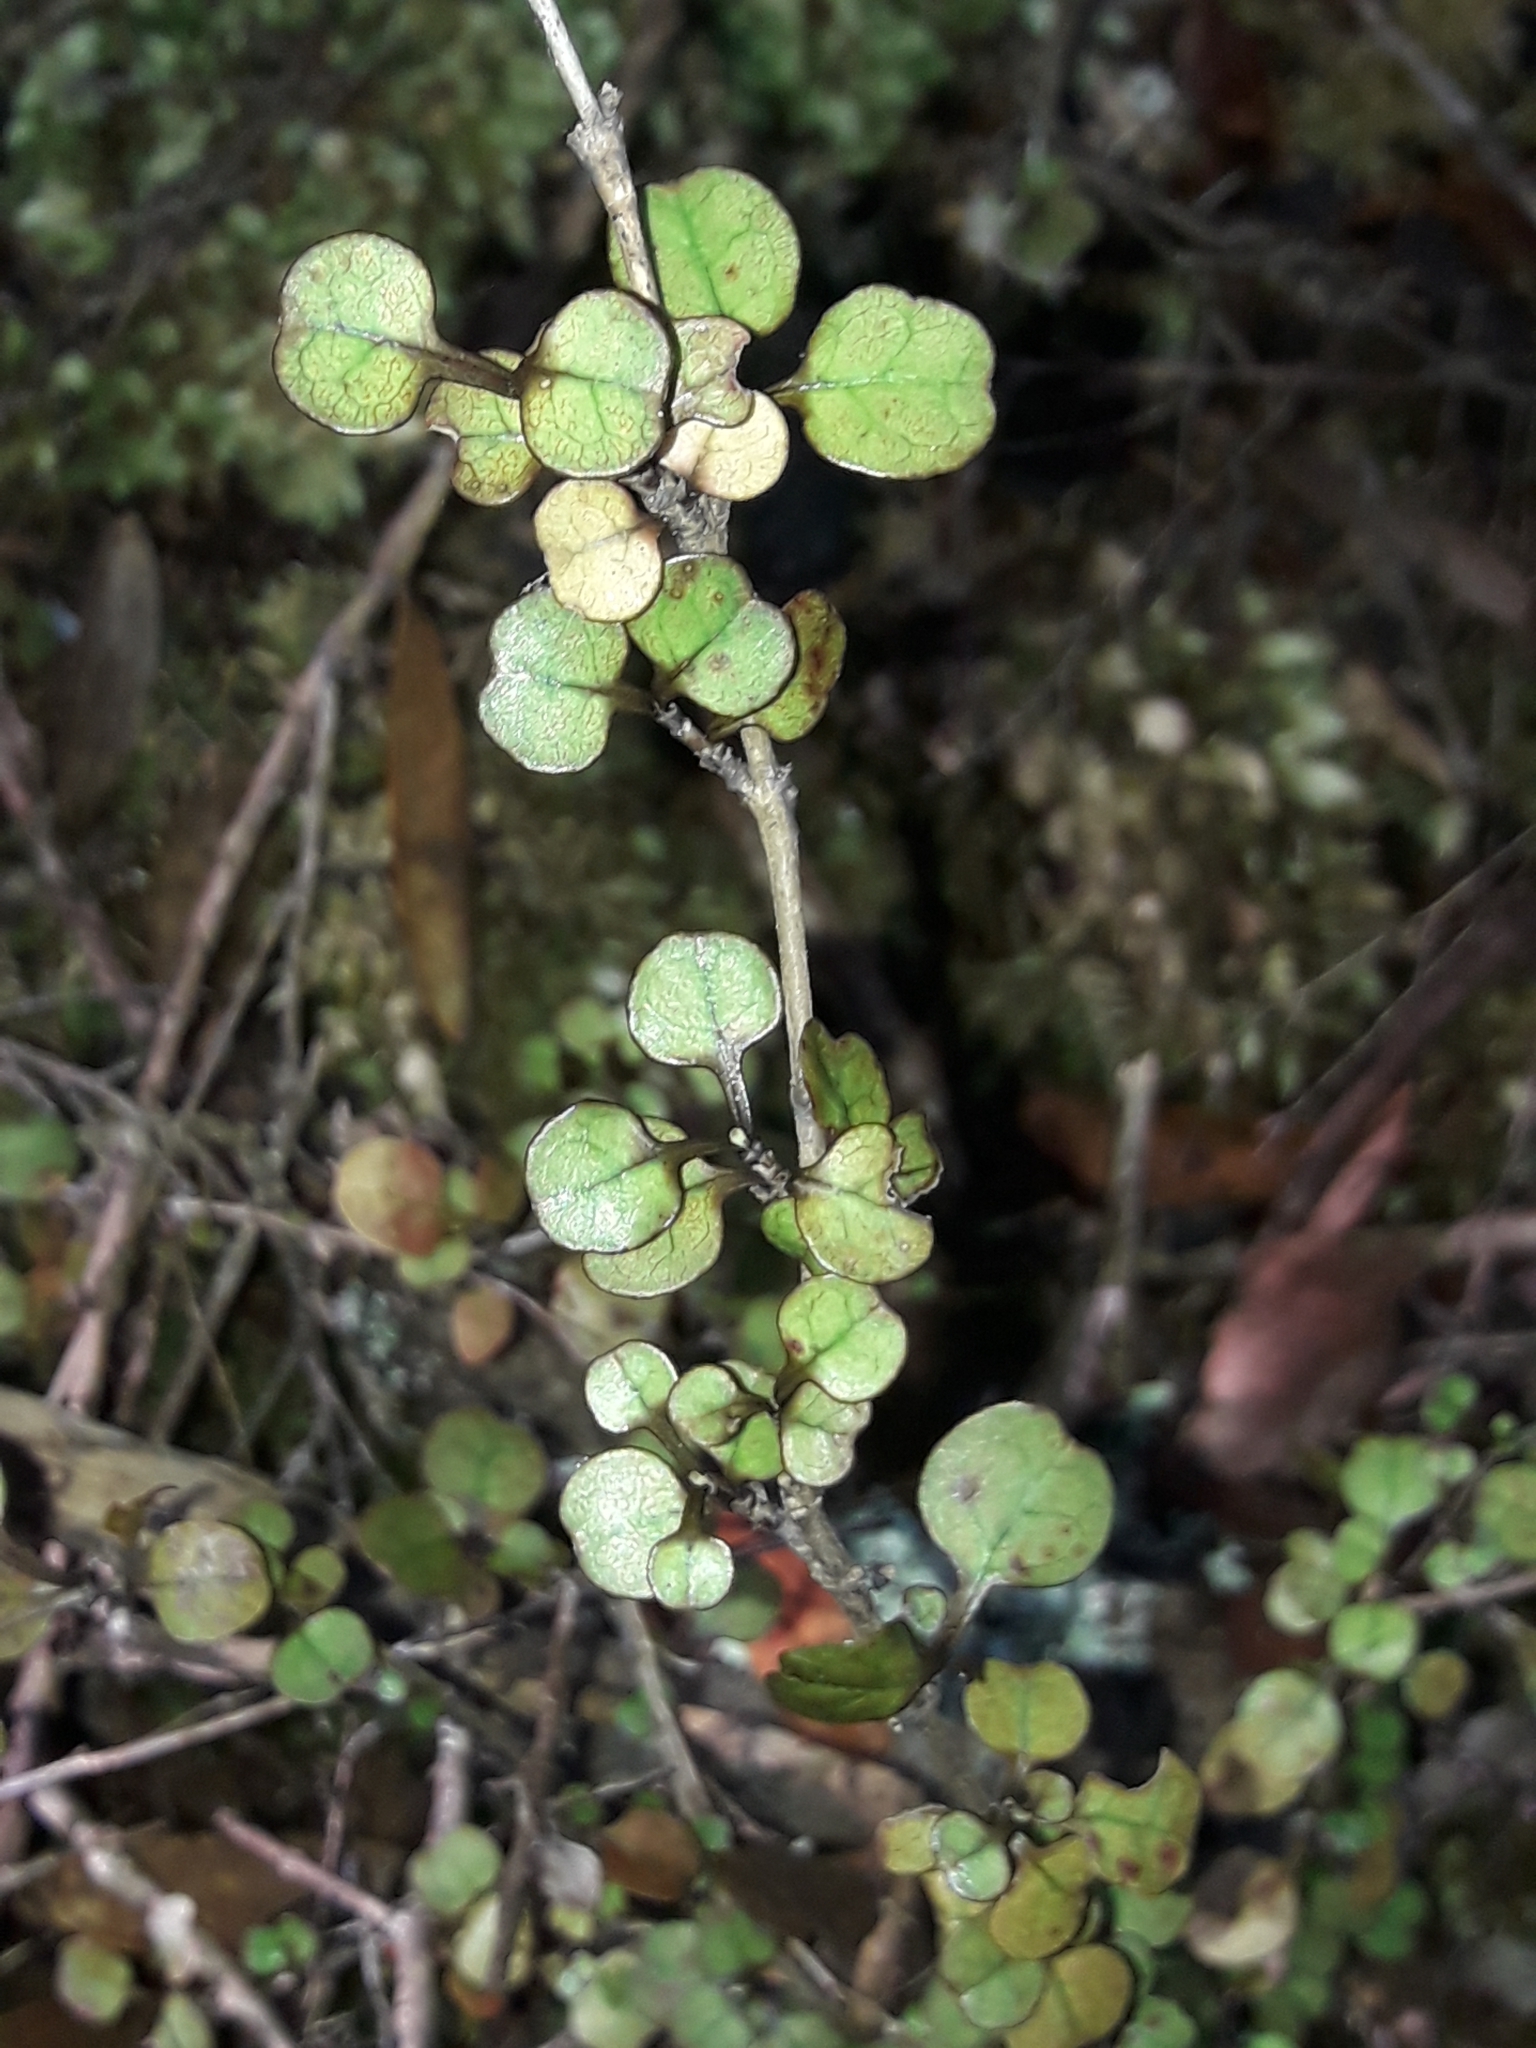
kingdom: Plantae
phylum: Tracheophyta
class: Magnoliopsida
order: Gentianales
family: Rubiaceae
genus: Coprosma
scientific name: Coprosma spathulata
